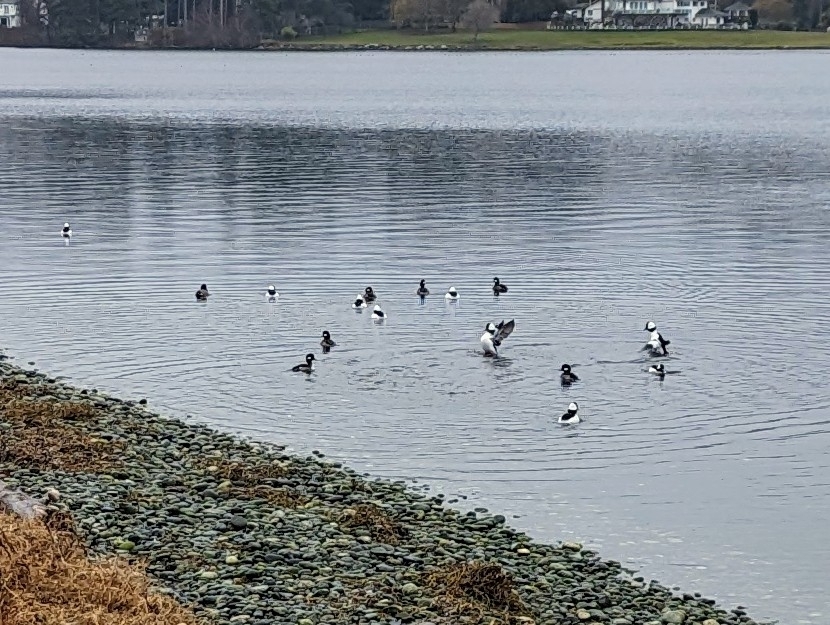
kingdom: Animalia
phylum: Chordata
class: Aves
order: Anseriformes
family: Anatidae
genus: Bucephala
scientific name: Bucephala albeola
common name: Bufflehead
